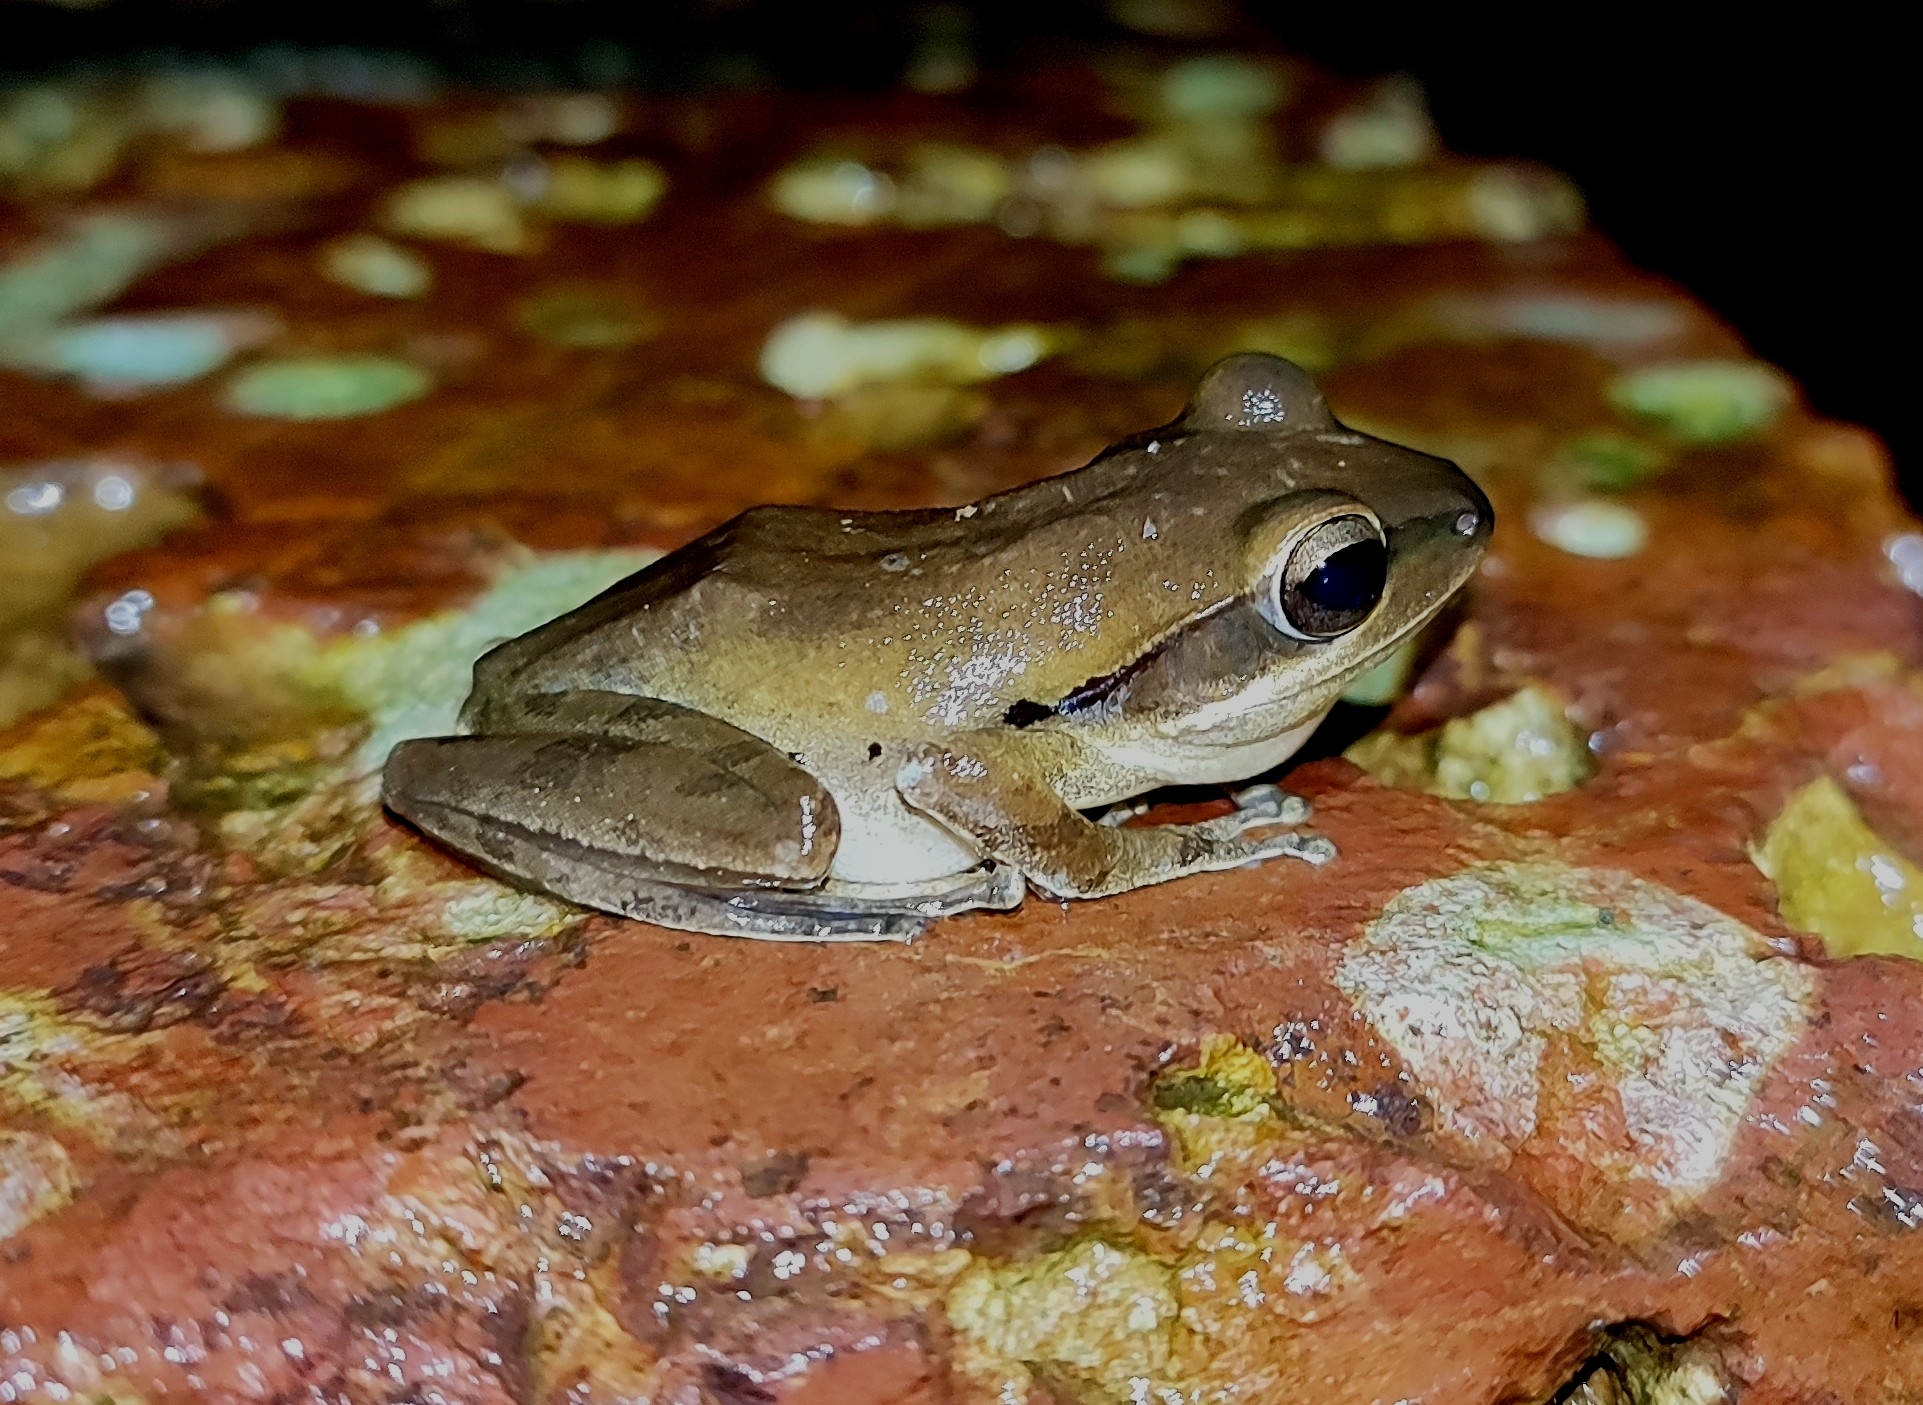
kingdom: Animalia
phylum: Chordata
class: Amphibia
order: Anura
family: Rhacophoridae
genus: Polypedates
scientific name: Polypedates maculatus
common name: Himalayan tree frog
